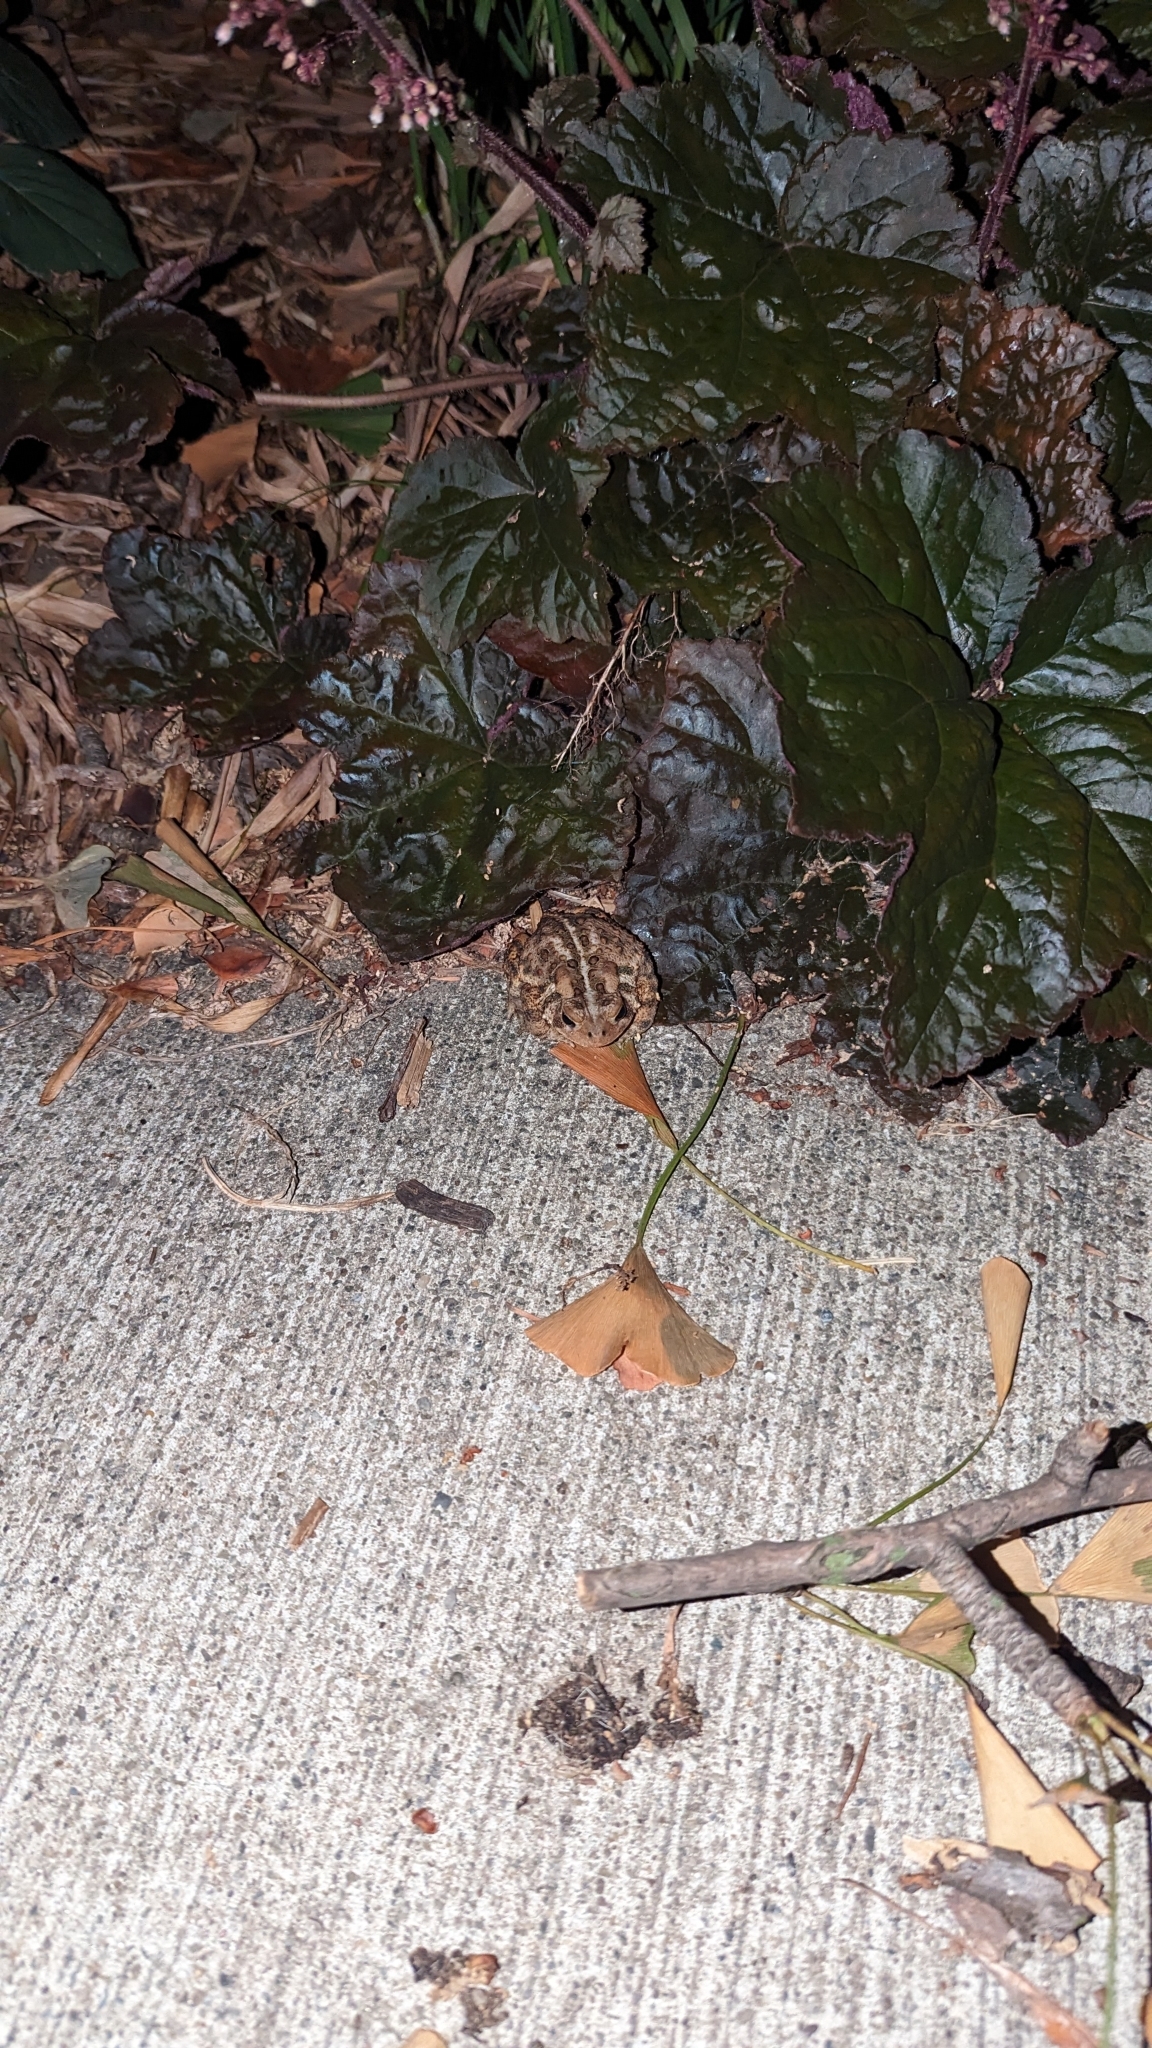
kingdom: Animalia
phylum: Chordata
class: Amphibia
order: Anura
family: Bufonidae
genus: Anaxyrus
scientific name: Anaxyrus americanus
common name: American toad
